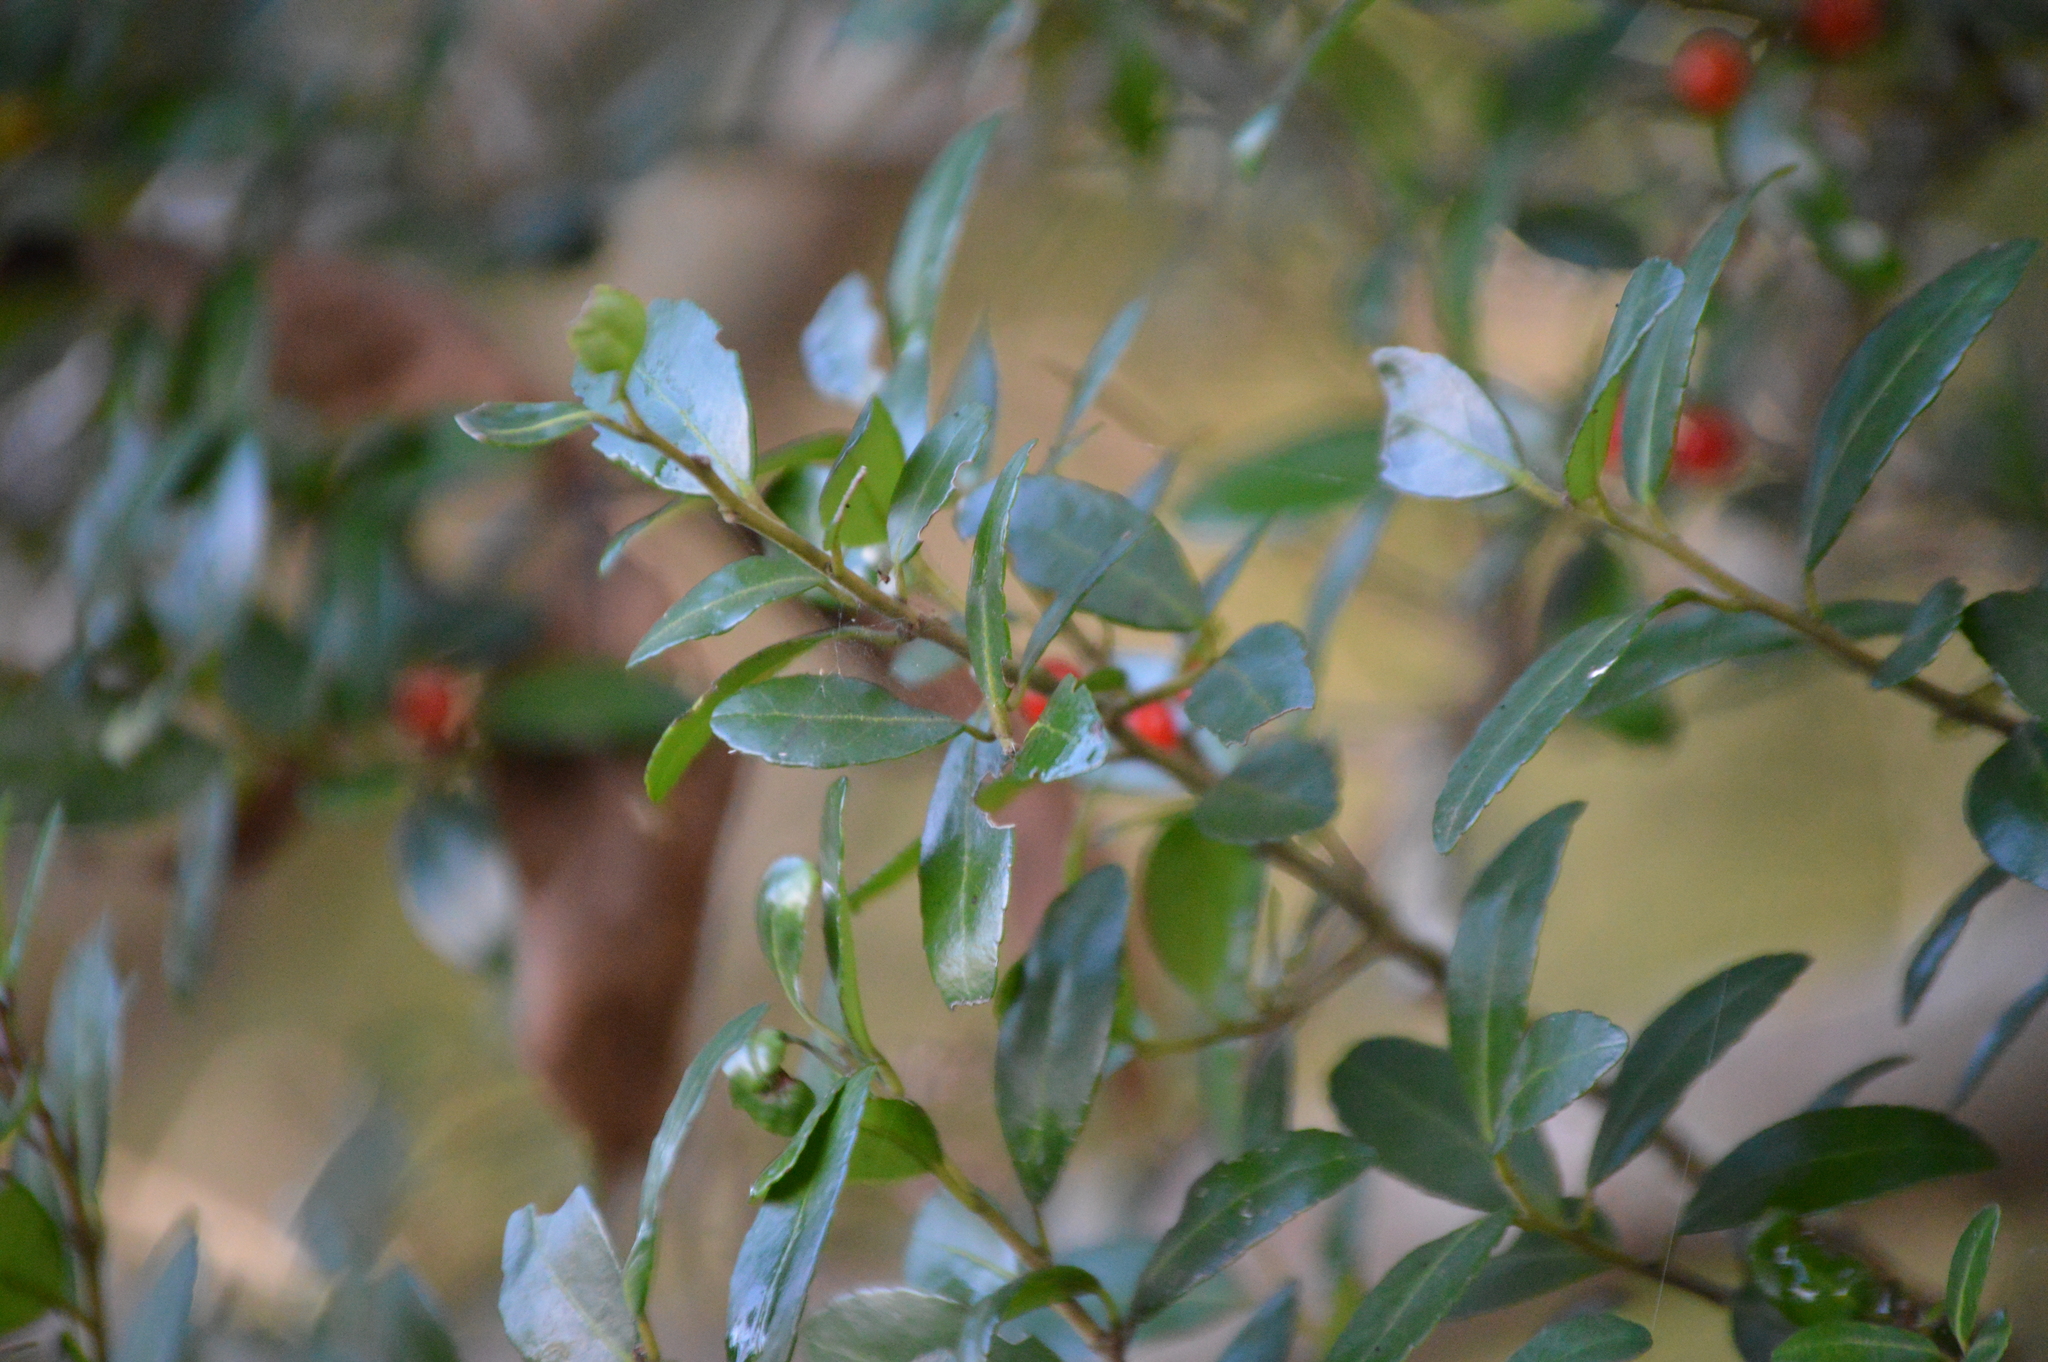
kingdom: Plantae
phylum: Tracheophyta
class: Magnoliopsida
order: Aquifoliales
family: Aquifoliaceae
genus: Ilex
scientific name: Ilex vomitoria
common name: Yaupon holly
